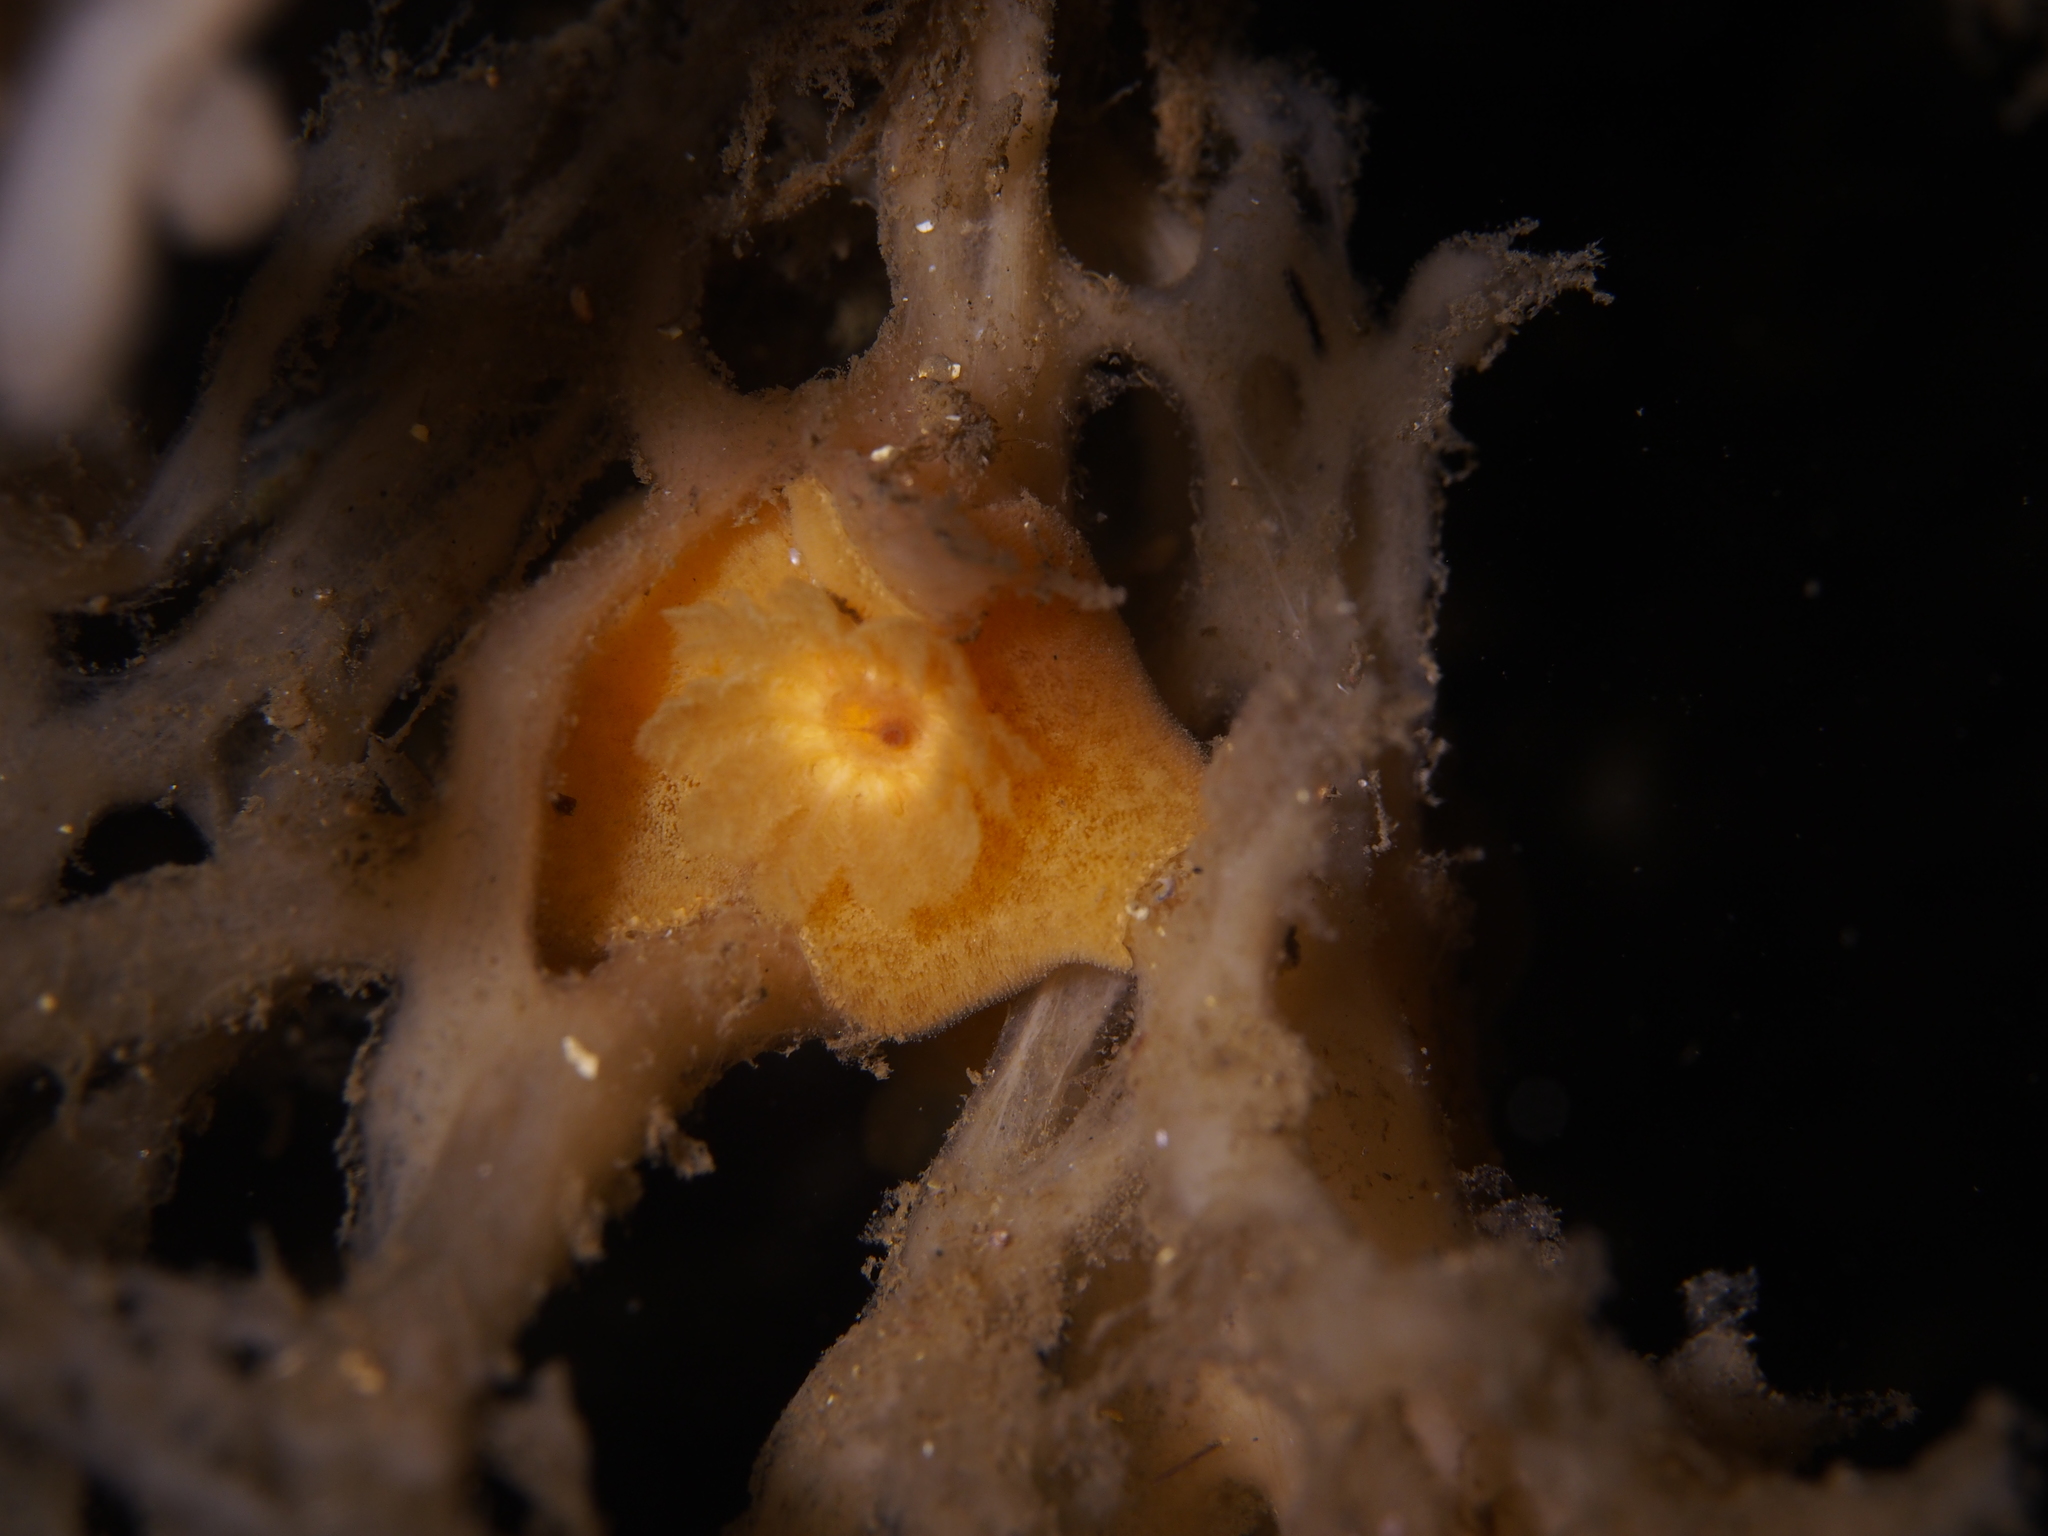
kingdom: Animalia
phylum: Mollusca
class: Gastropoda
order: Nudibranchia
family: Discodorididae
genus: Jorunna
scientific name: Jorunna tomentosa
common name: Grey sea slug
